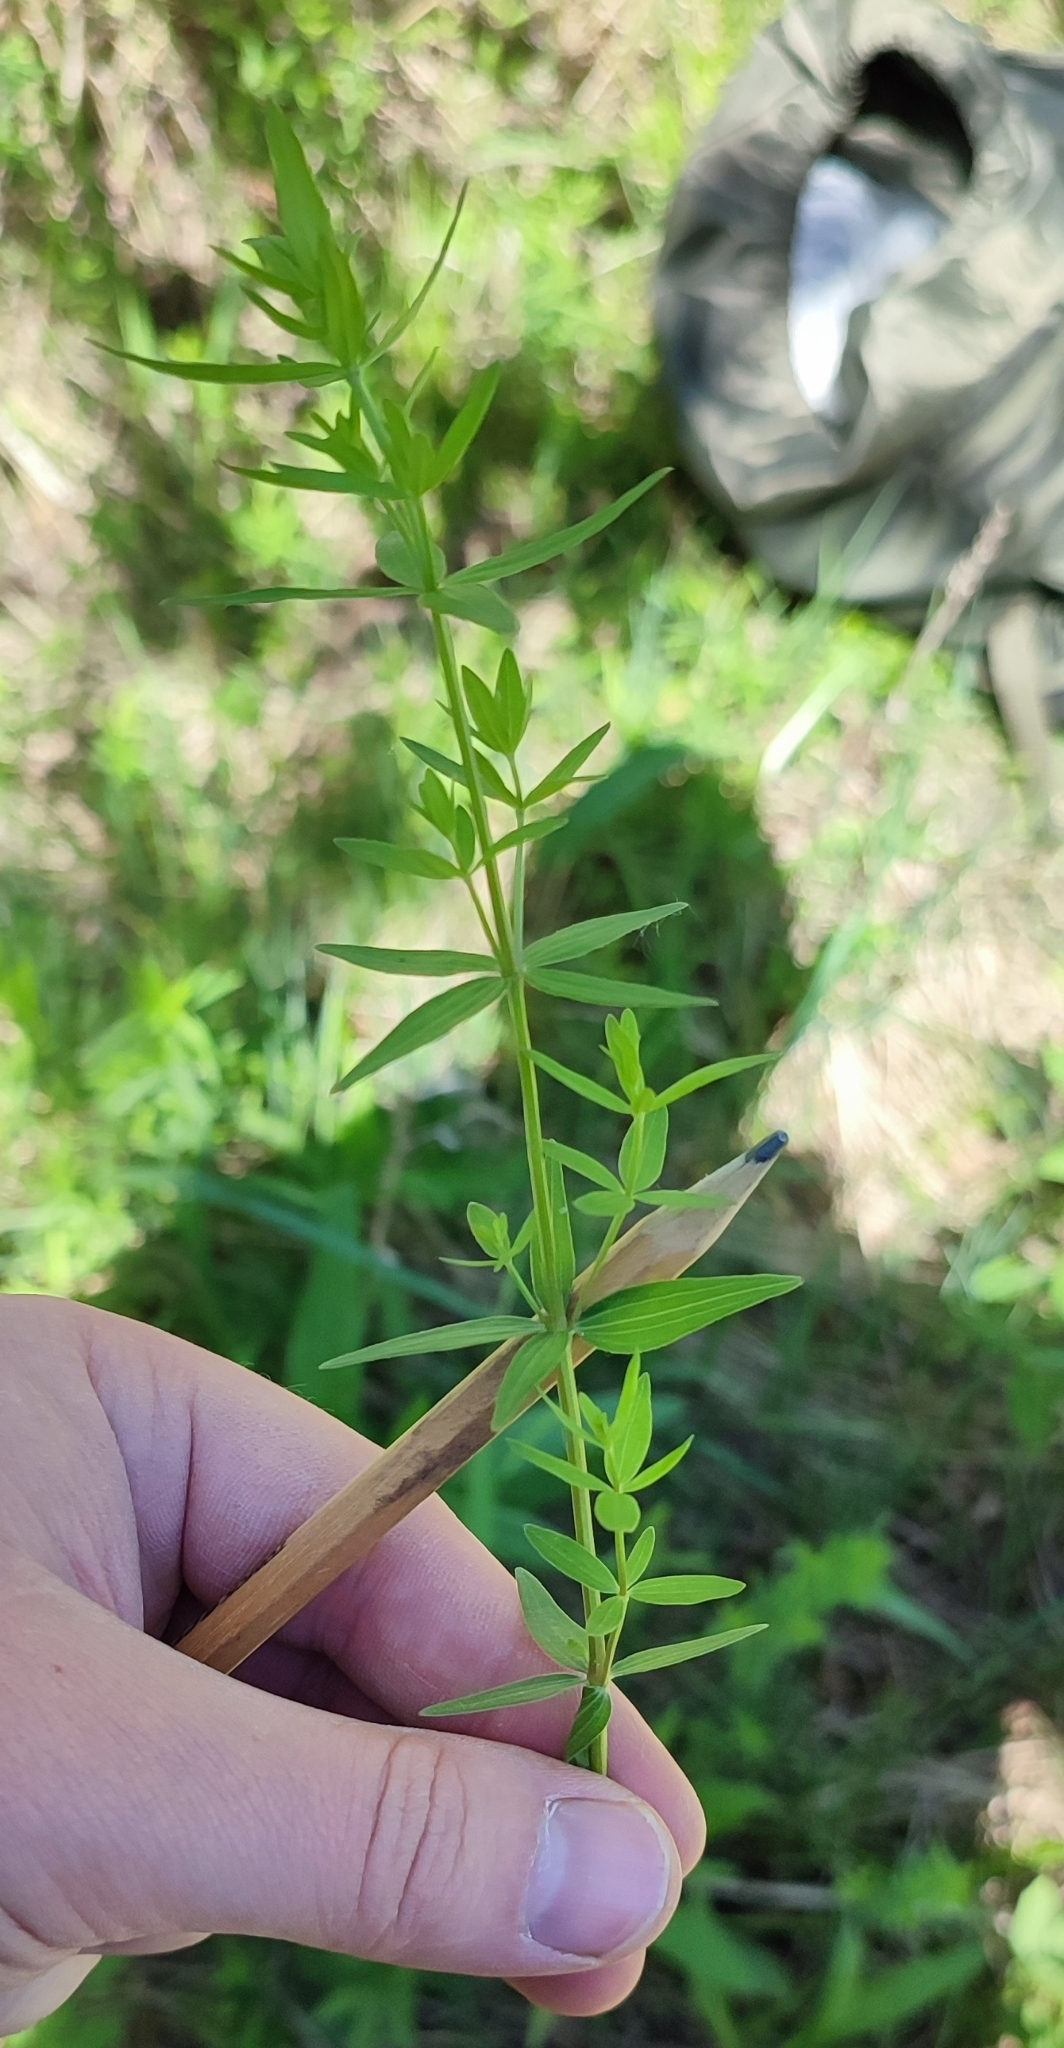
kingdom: Plantae
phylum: Tracheophyta
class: Magnoliopsida
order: Gentianales
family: Rubiaceae
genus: Galium
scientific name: Galium boreale
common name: Northern bedstraw
